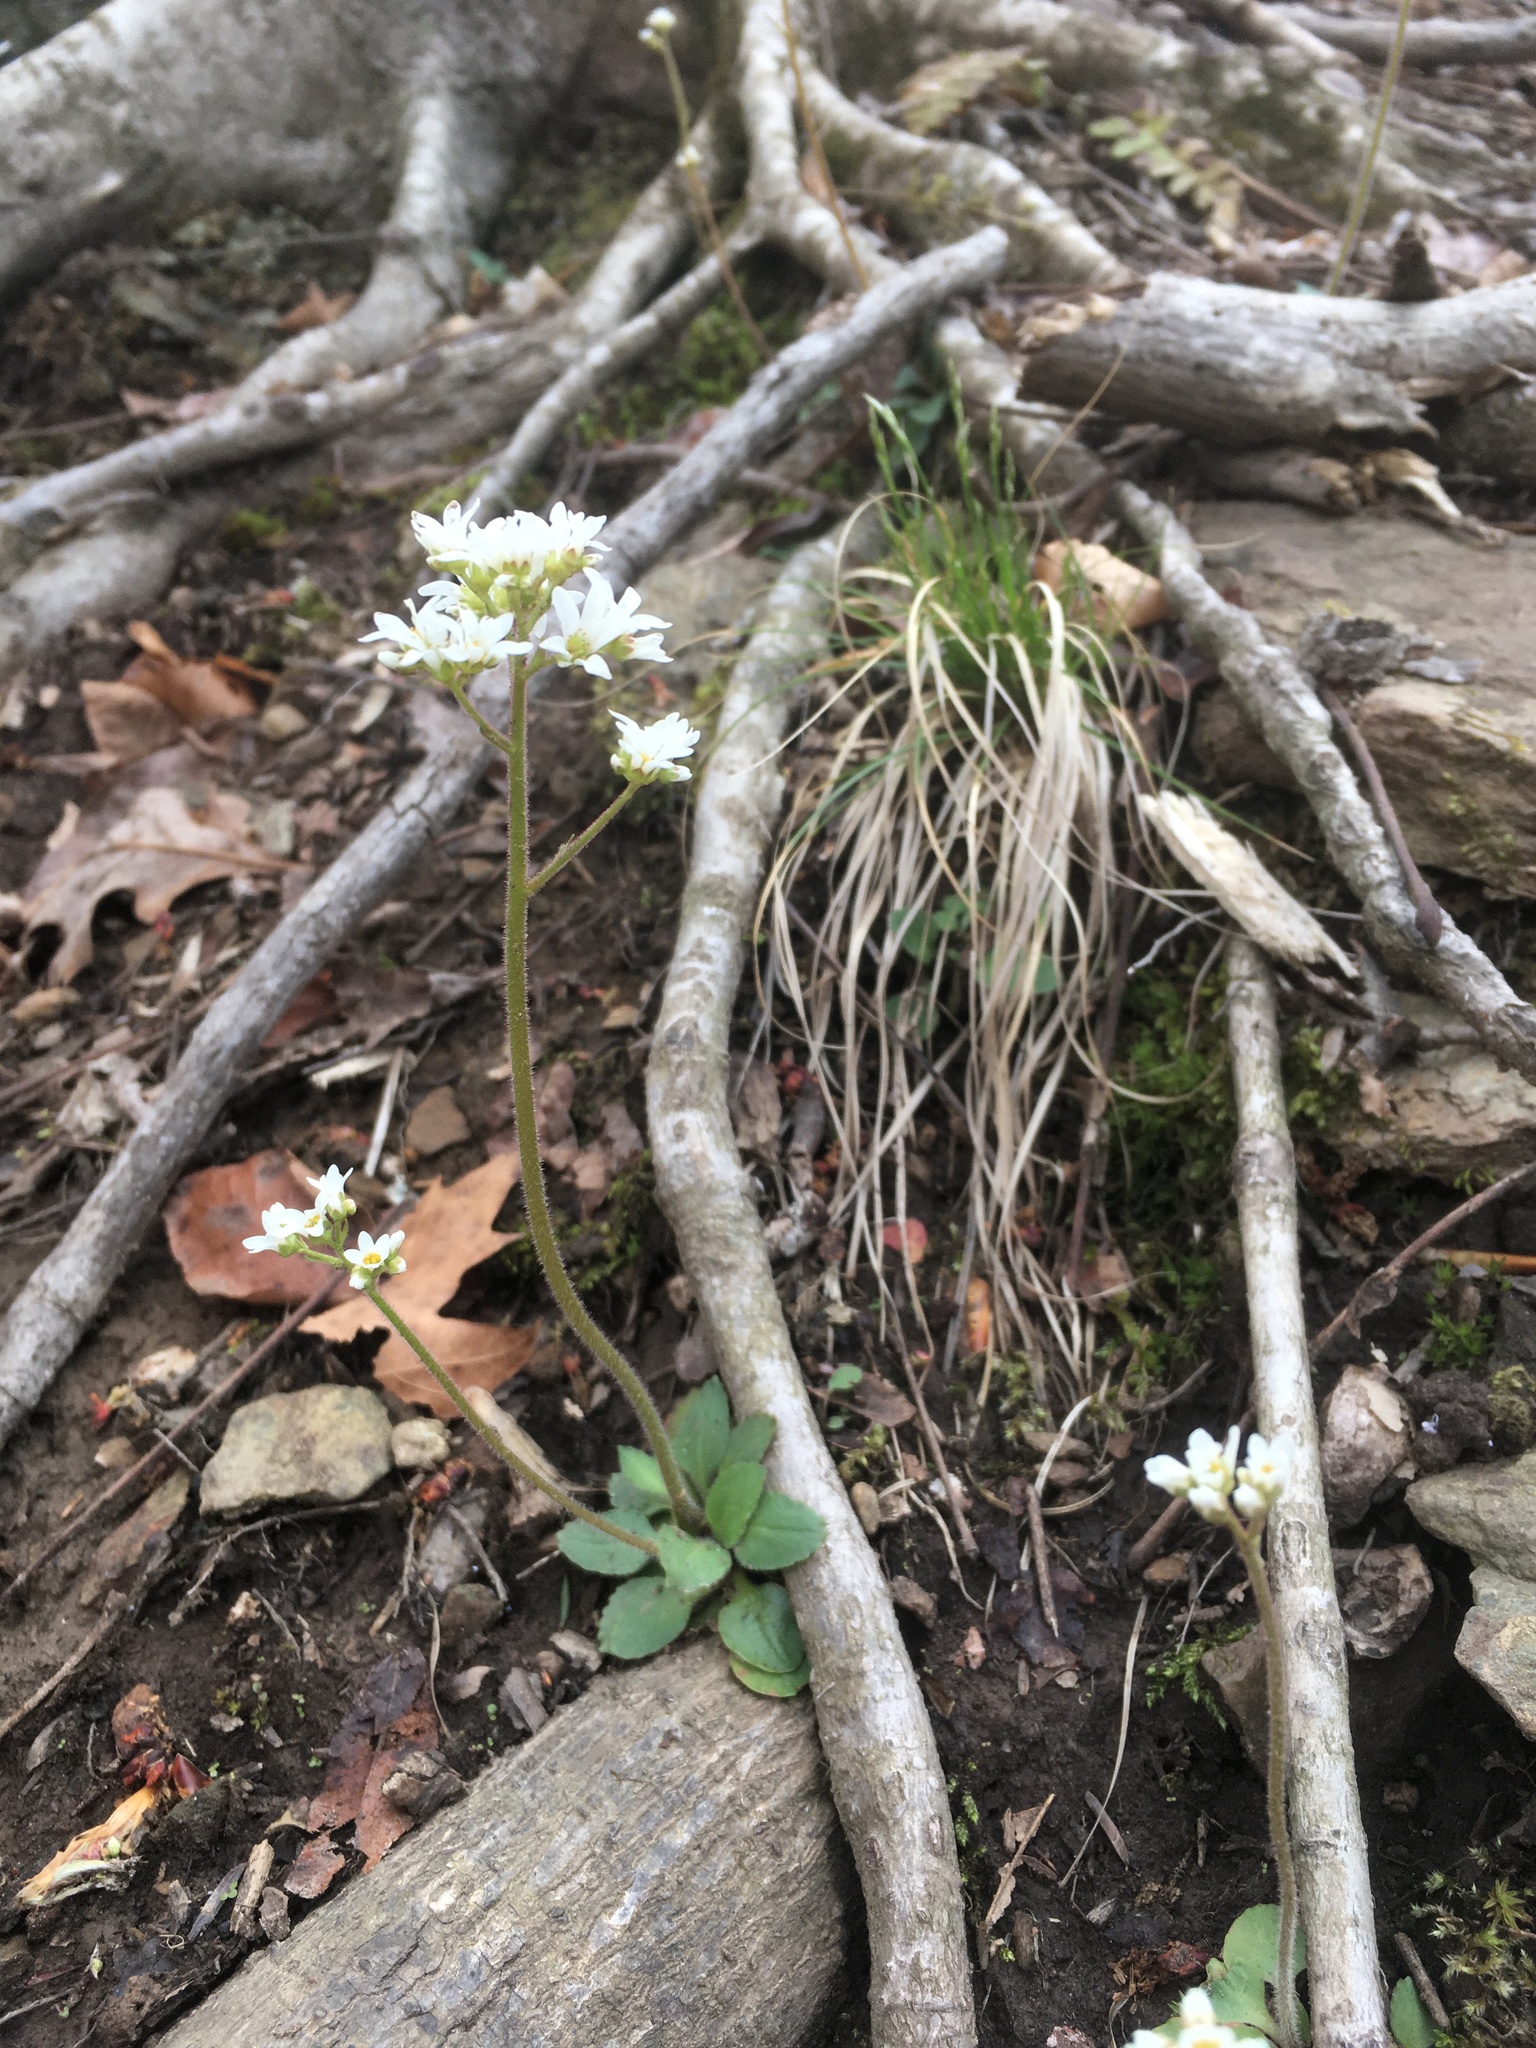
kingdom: Plantae
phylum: Tracheophyta
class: Magnoliopsida
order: Saxifragales
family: Saxifragaceae
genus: Micranthes
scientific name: Micranthes virginiensis
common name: Early saxifrage
